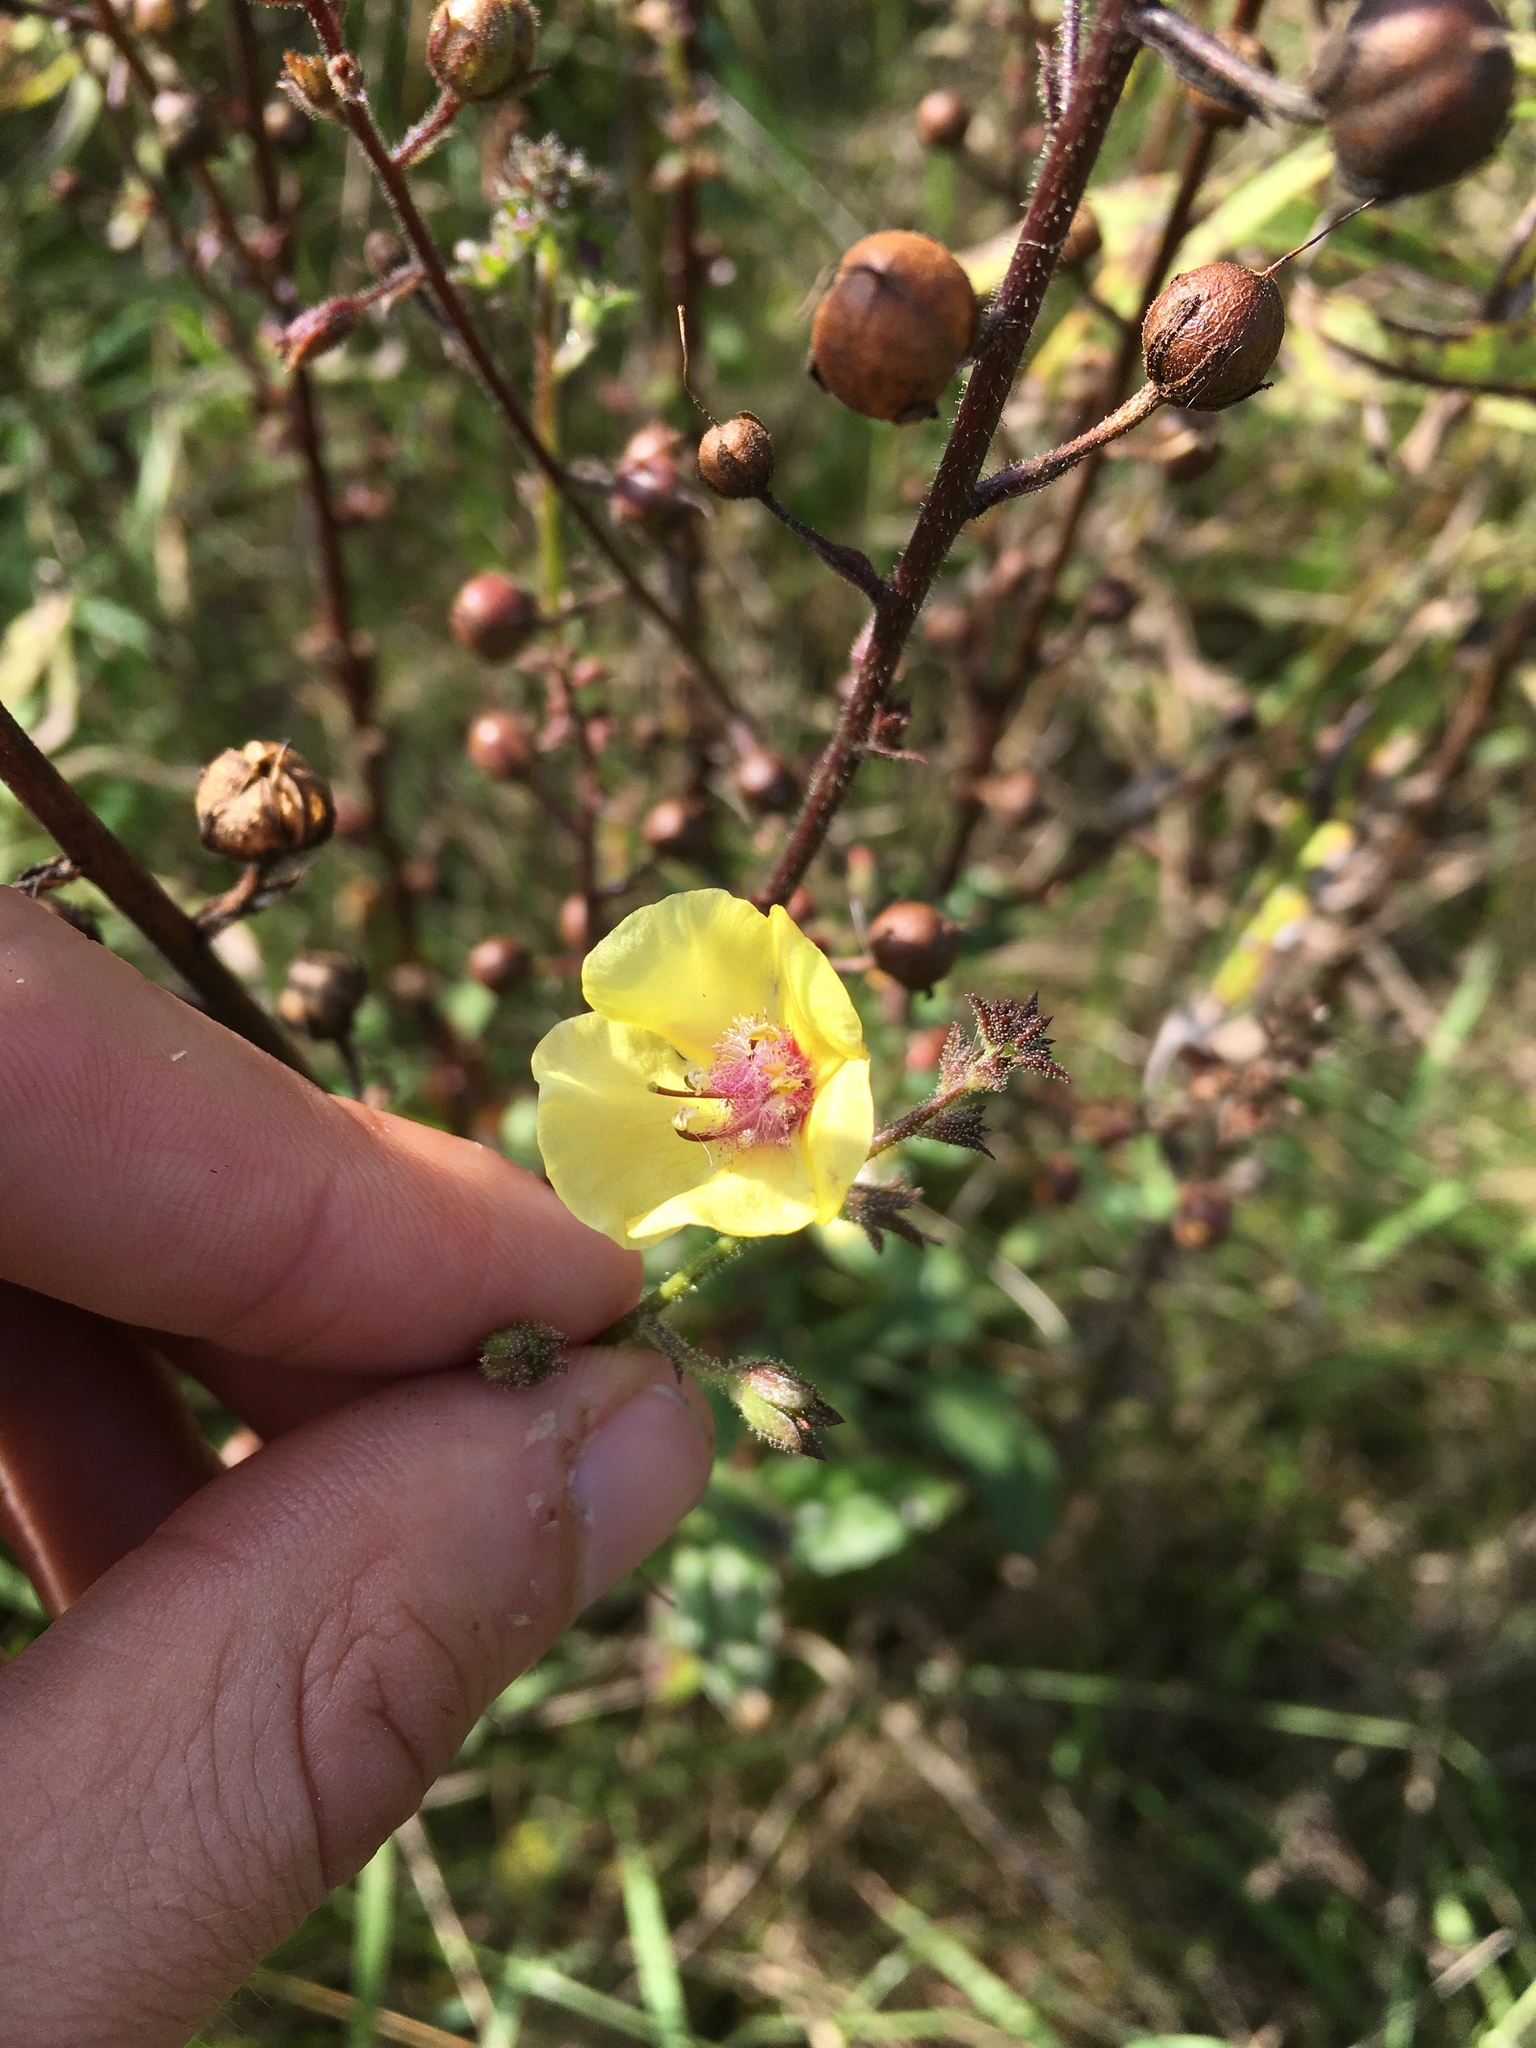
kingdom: Plantae
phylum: Tracheophyta
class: Magnoliopsida
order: Lamiales
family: Scrophulariaceae
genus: Verbascum
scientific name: Verbascum blattaria
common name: Moth mullein
